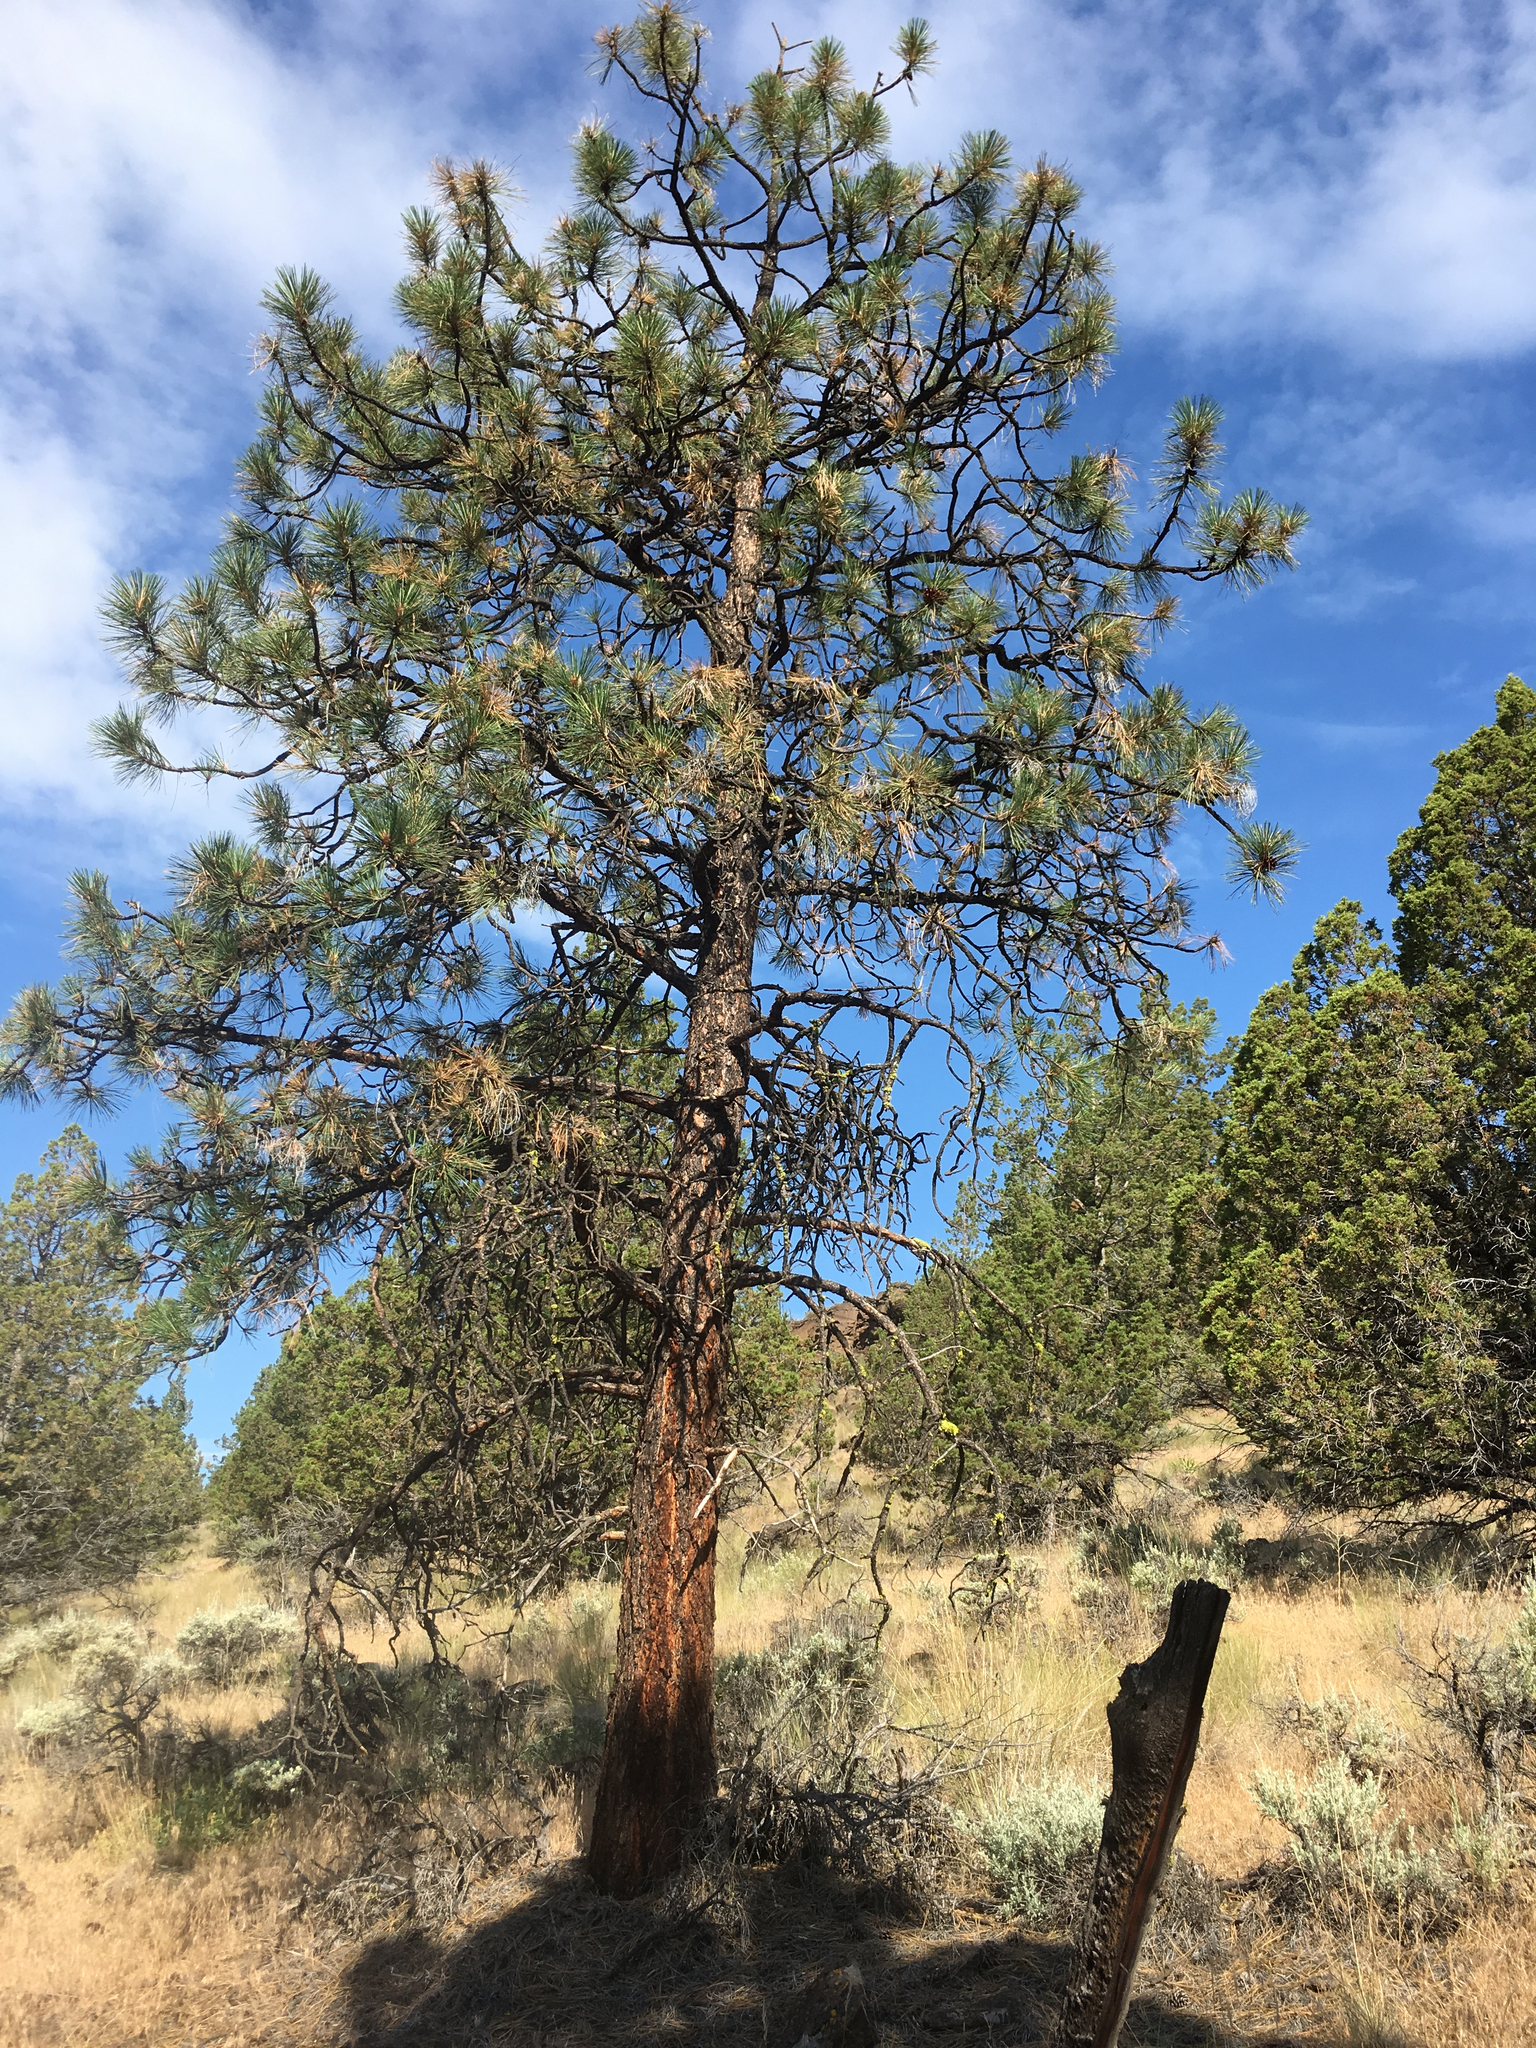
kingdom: Plantae
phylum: Tracheophyta
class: Pinopsida
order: Pinales
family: Pinaceae
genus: Pinus
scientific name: Pinus ponderosa
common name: Western yellow-pine
